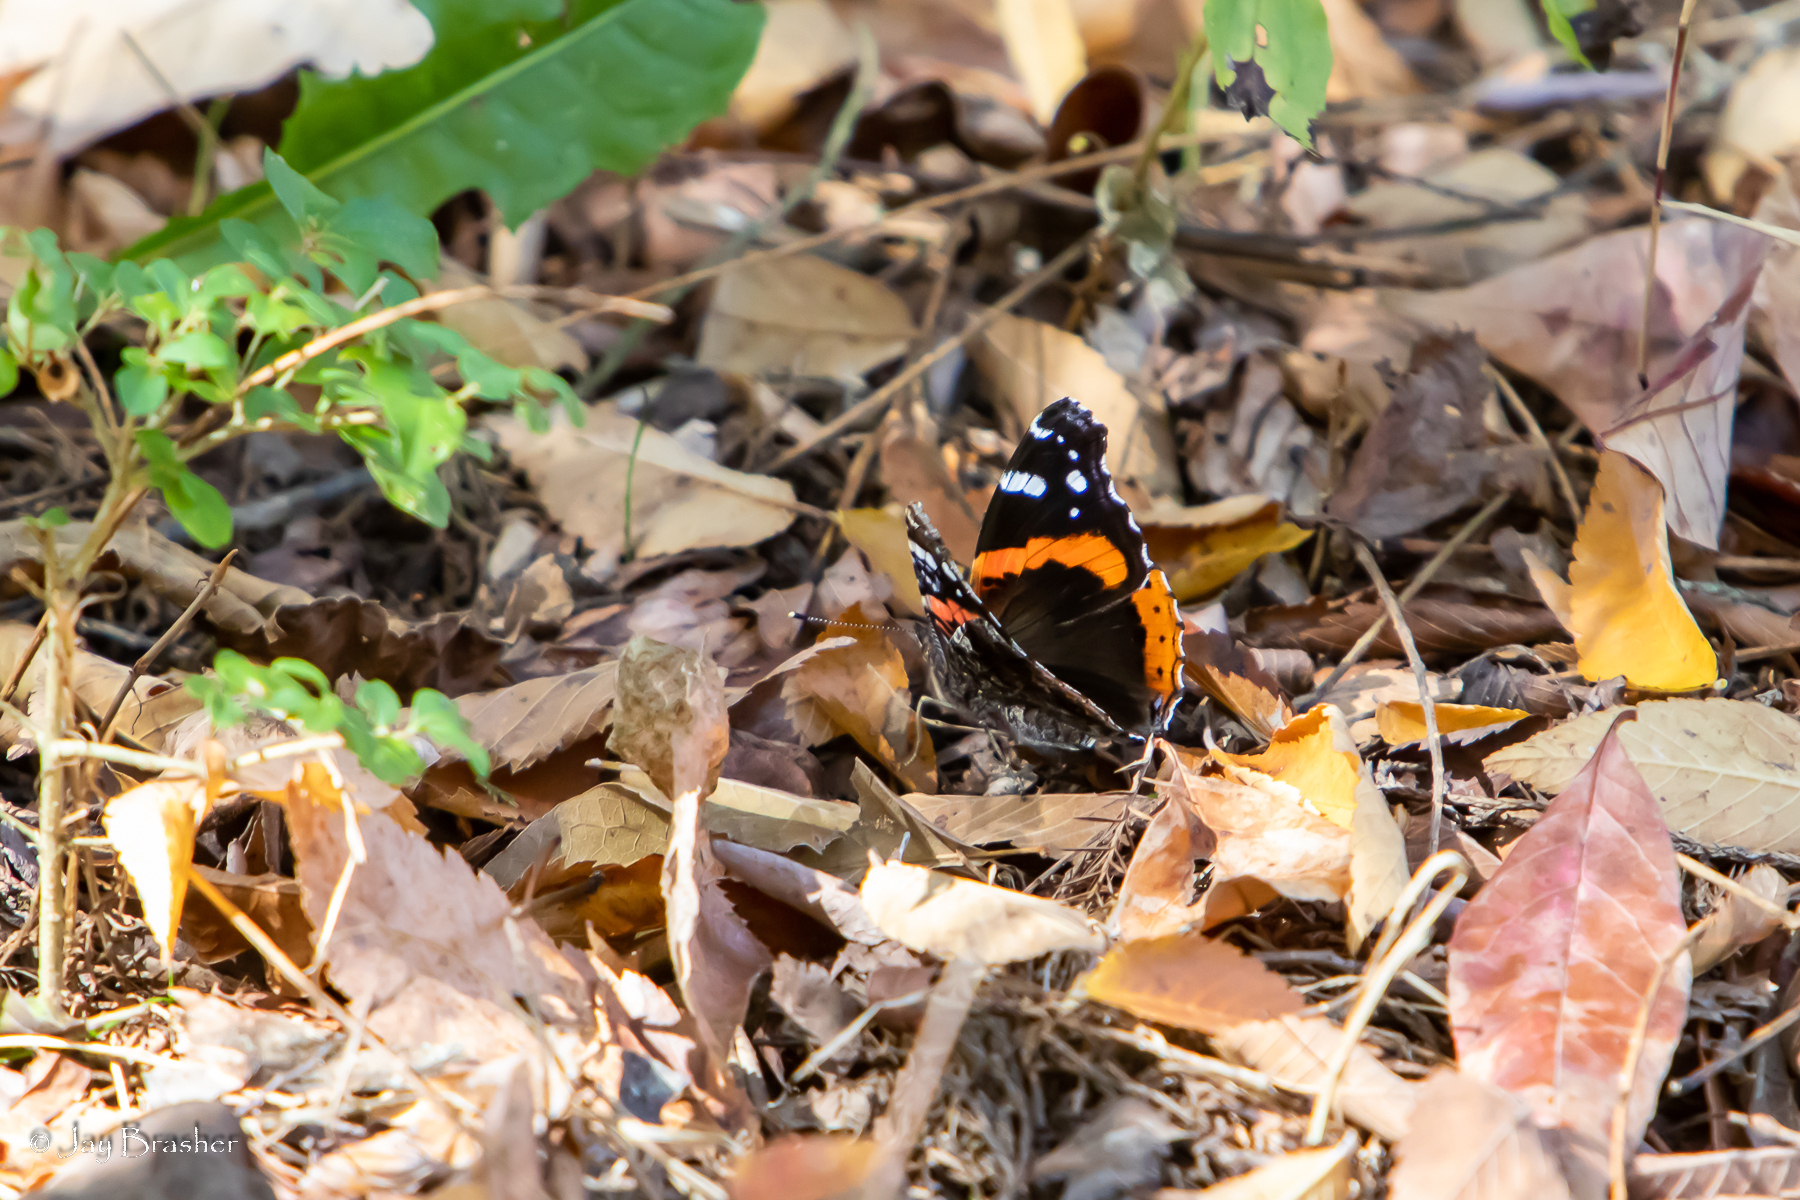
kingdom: Animalia
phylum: Arthropoda
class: Insecta
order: Lepidoptera
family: Nymphalidae
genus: Vanessa
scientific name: Vanessa atalanta
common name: Red admiral
